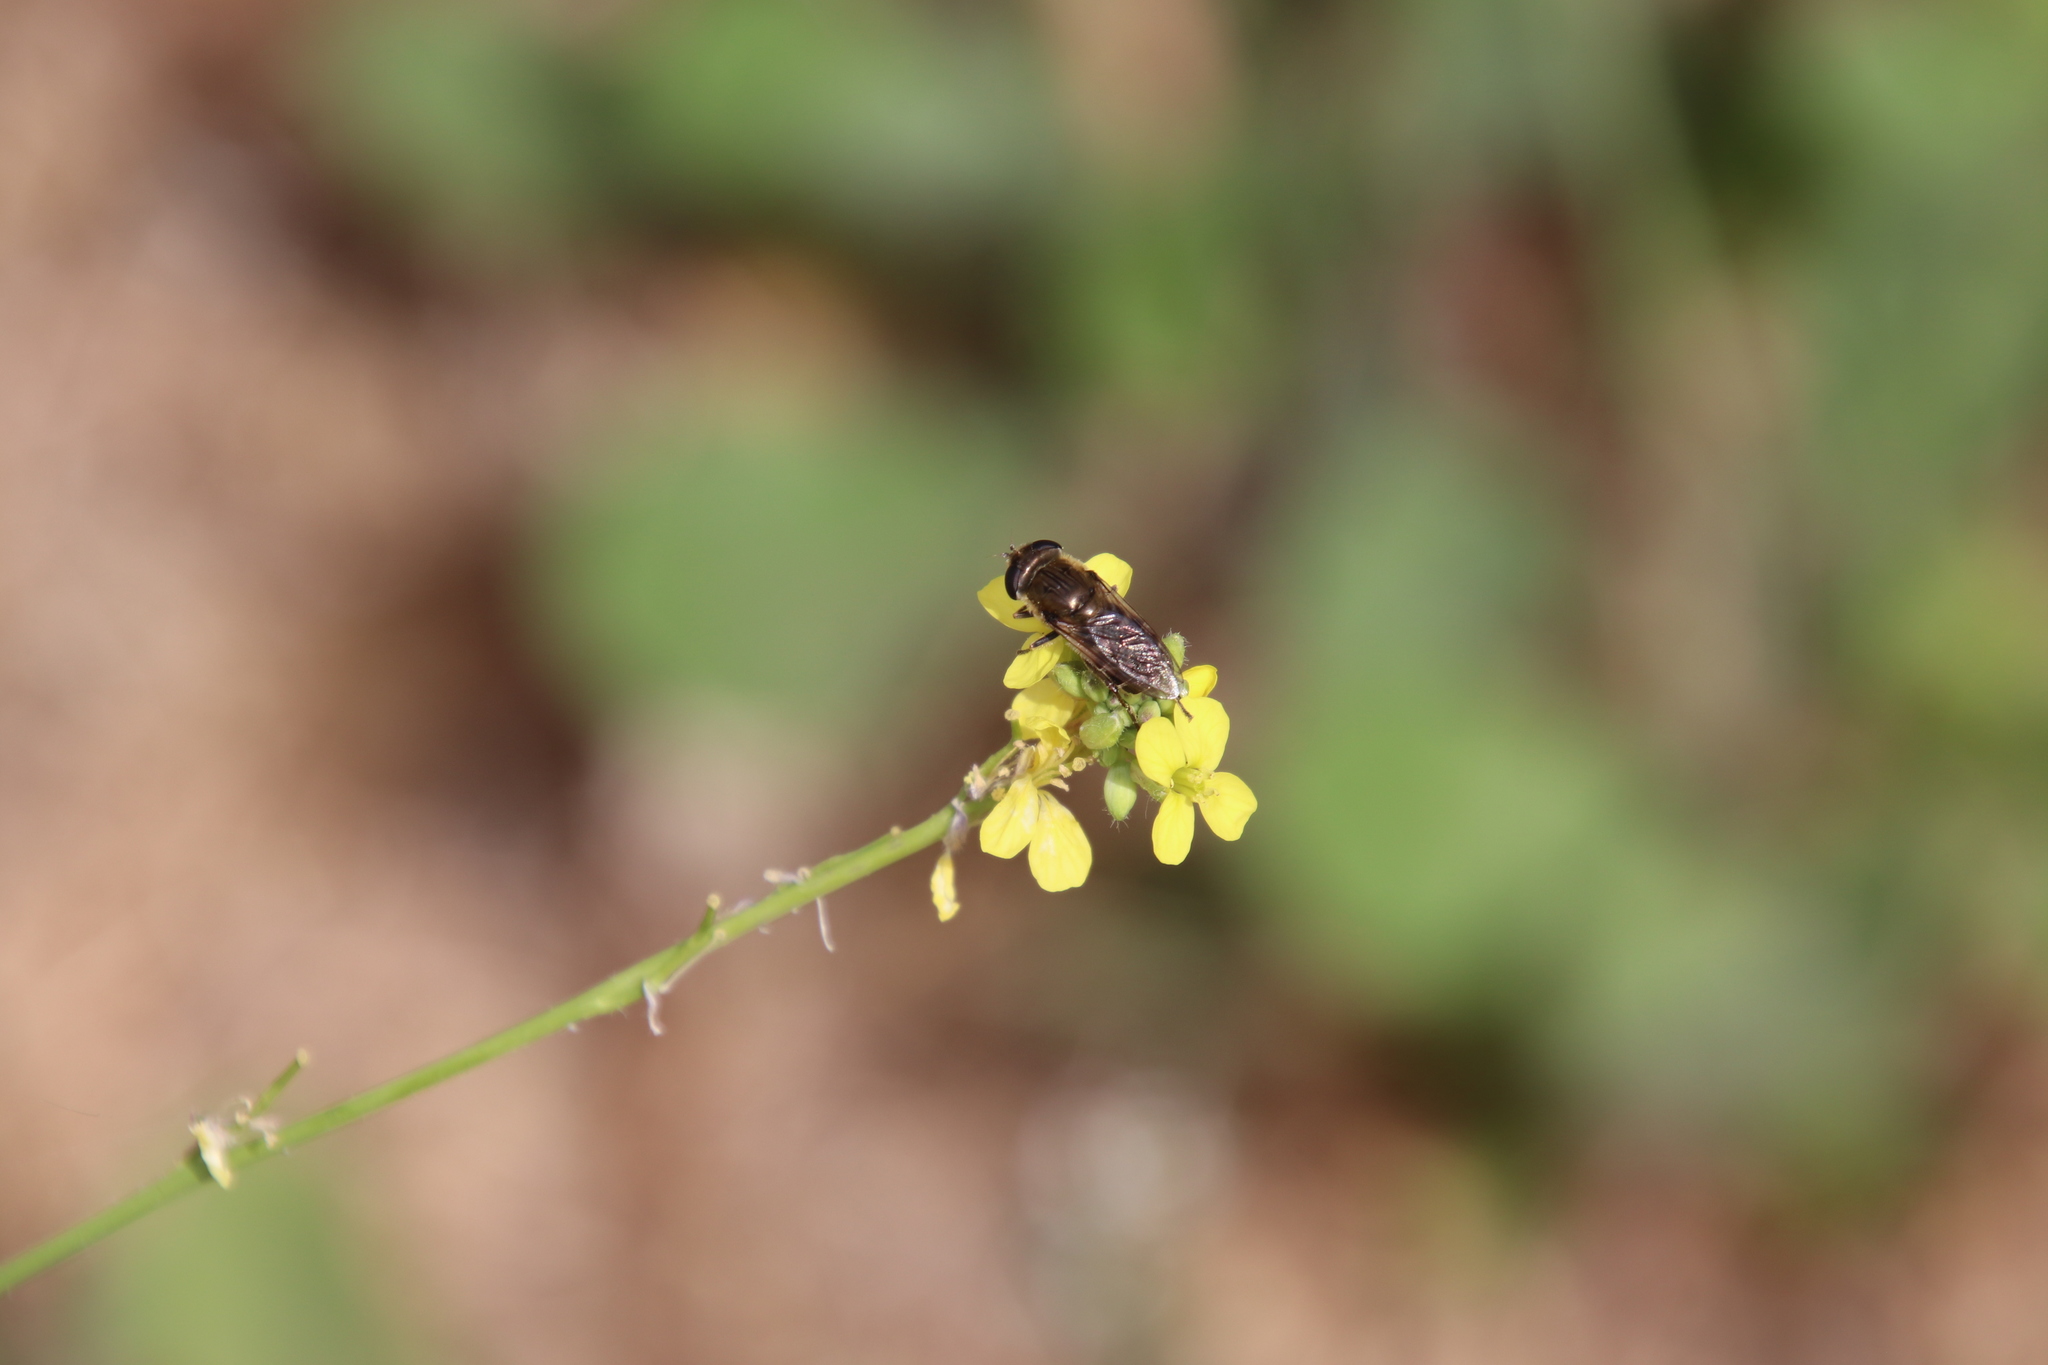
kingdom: Animalia
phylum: Arthropoda
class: Insecta
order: Diptera
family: Syrphidae
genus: Asemosyrphus
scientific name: Asemosyrphus polygrammus
